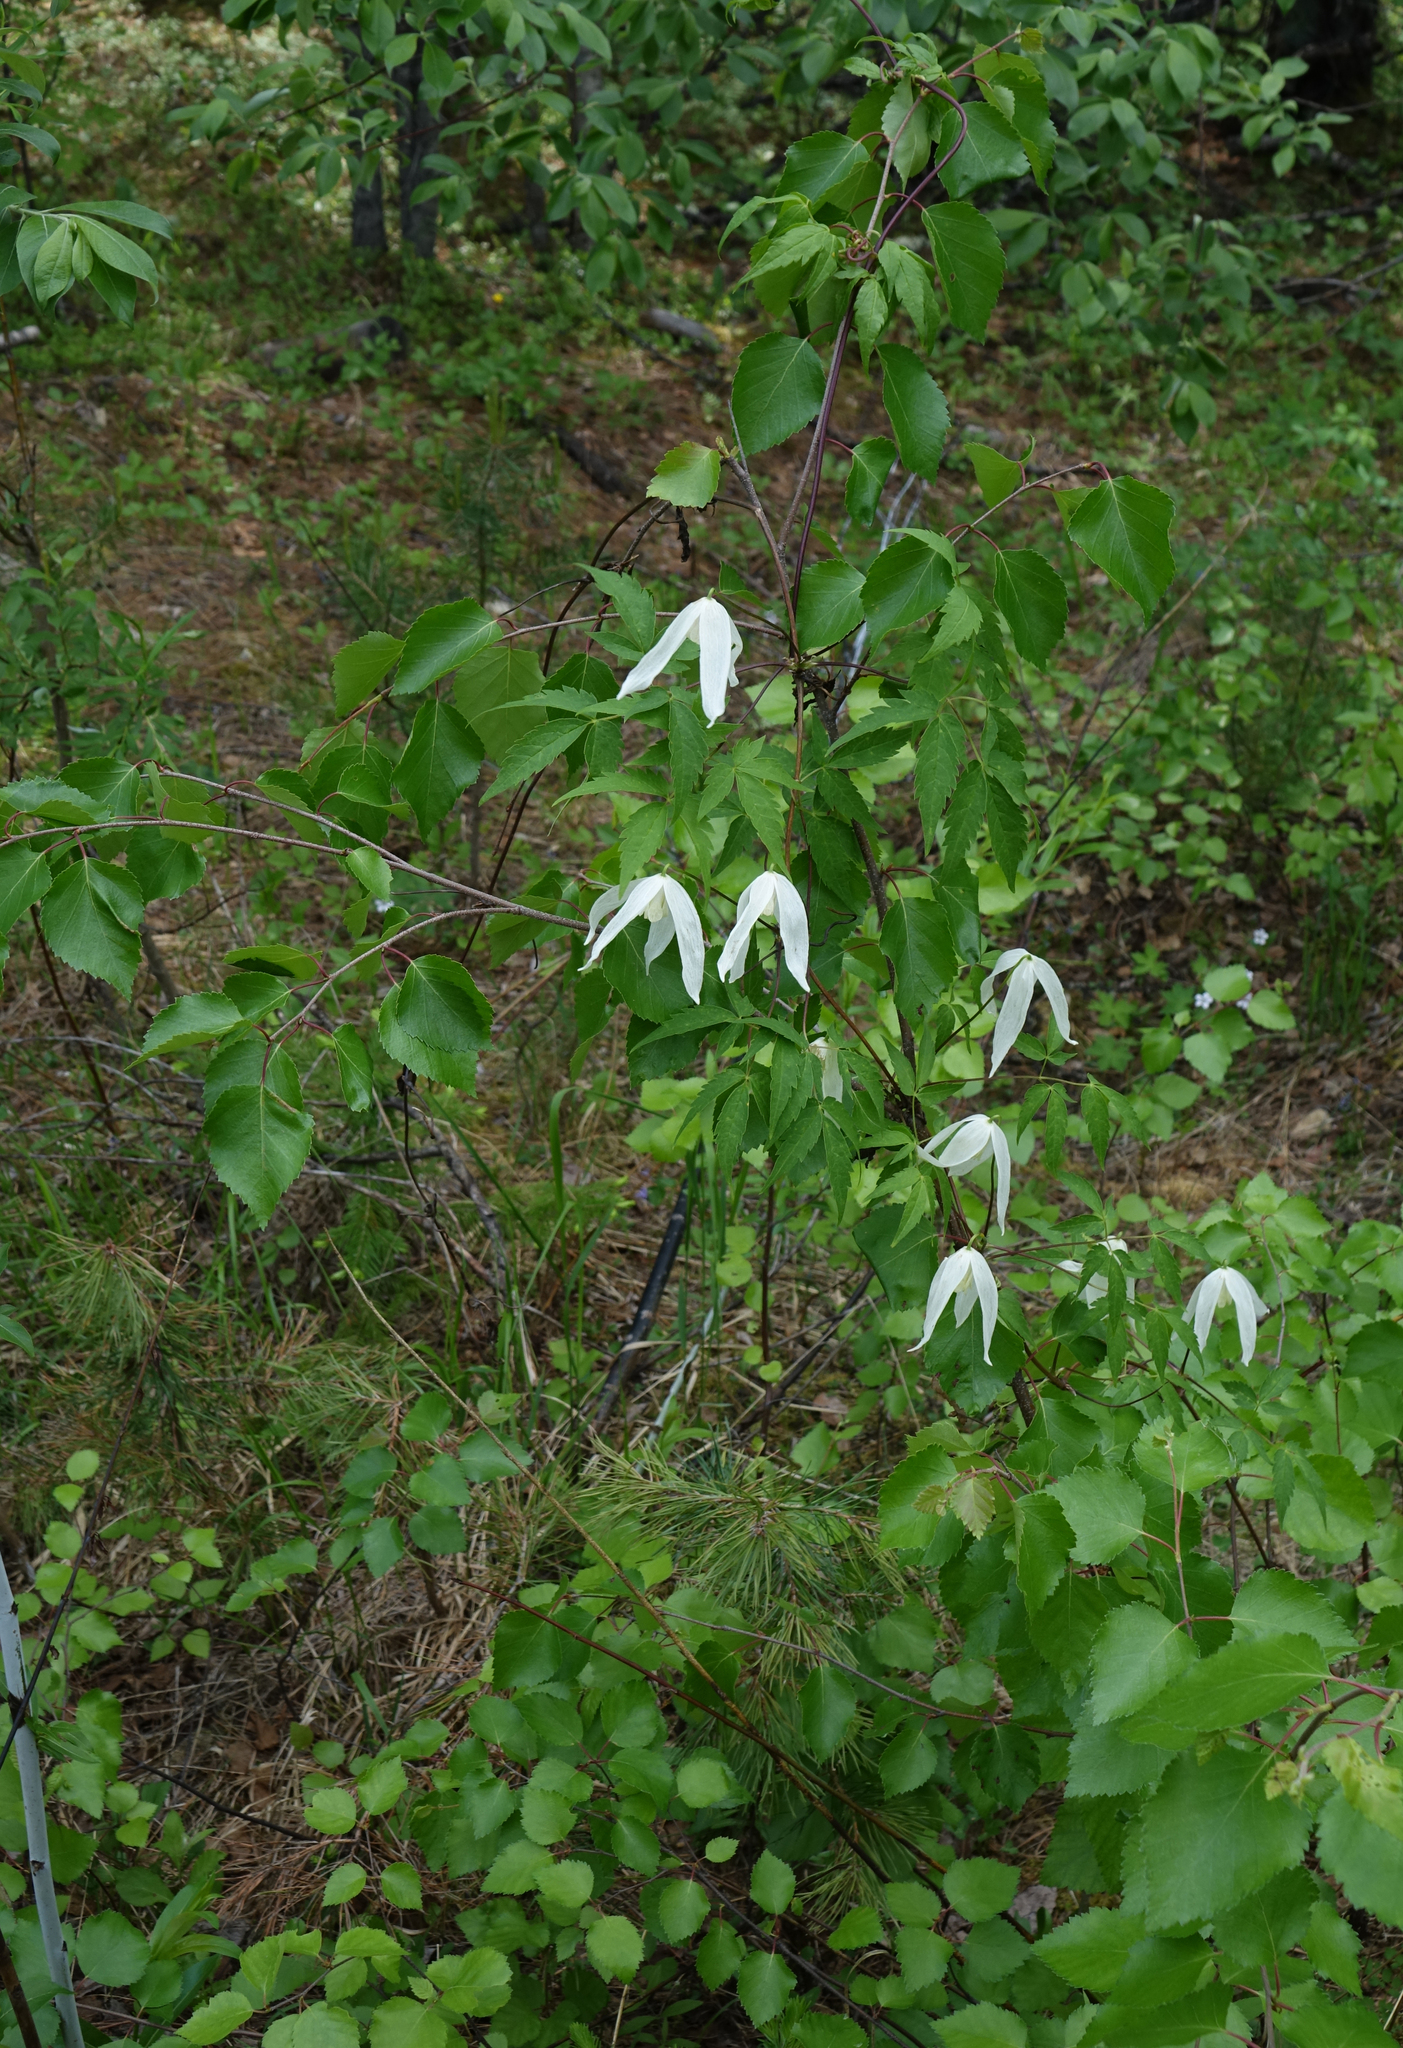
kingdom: Plantae
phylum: Tracheophyta
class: Magnoliopsida
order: Ranunculales
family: Ranunculaceae
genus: Clematis
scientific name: Clematis sibirica
